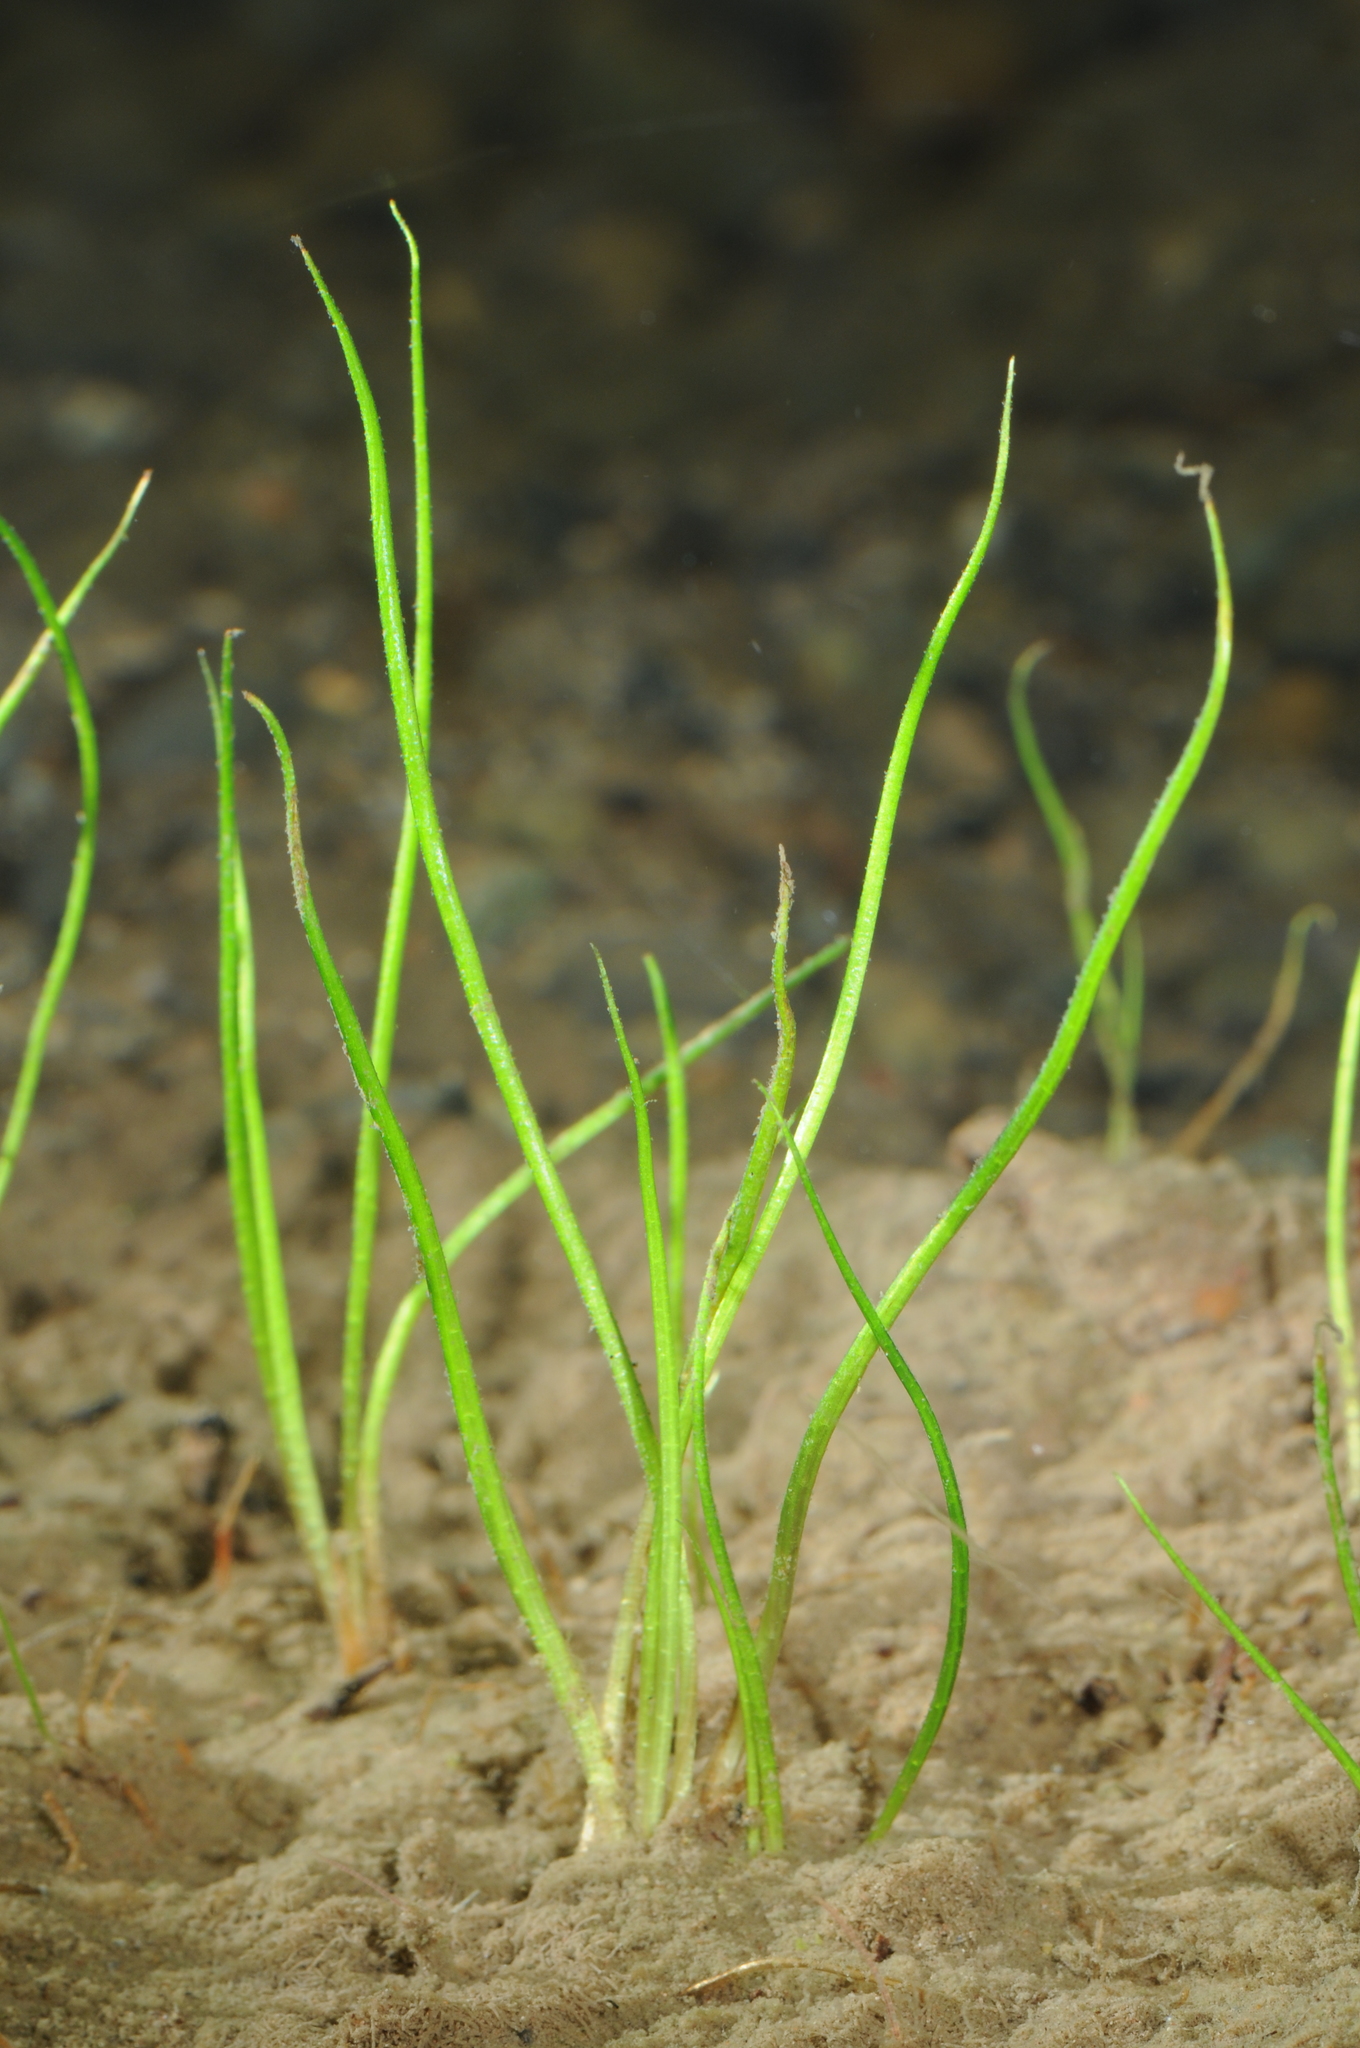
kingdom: Plantae
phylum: Tracheophyta
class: Lycopodiopsida
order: Isoetales
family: Isoetaceae
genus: Isoetes
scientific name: Isoetes bolanderi
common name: Bolander's quillwort
